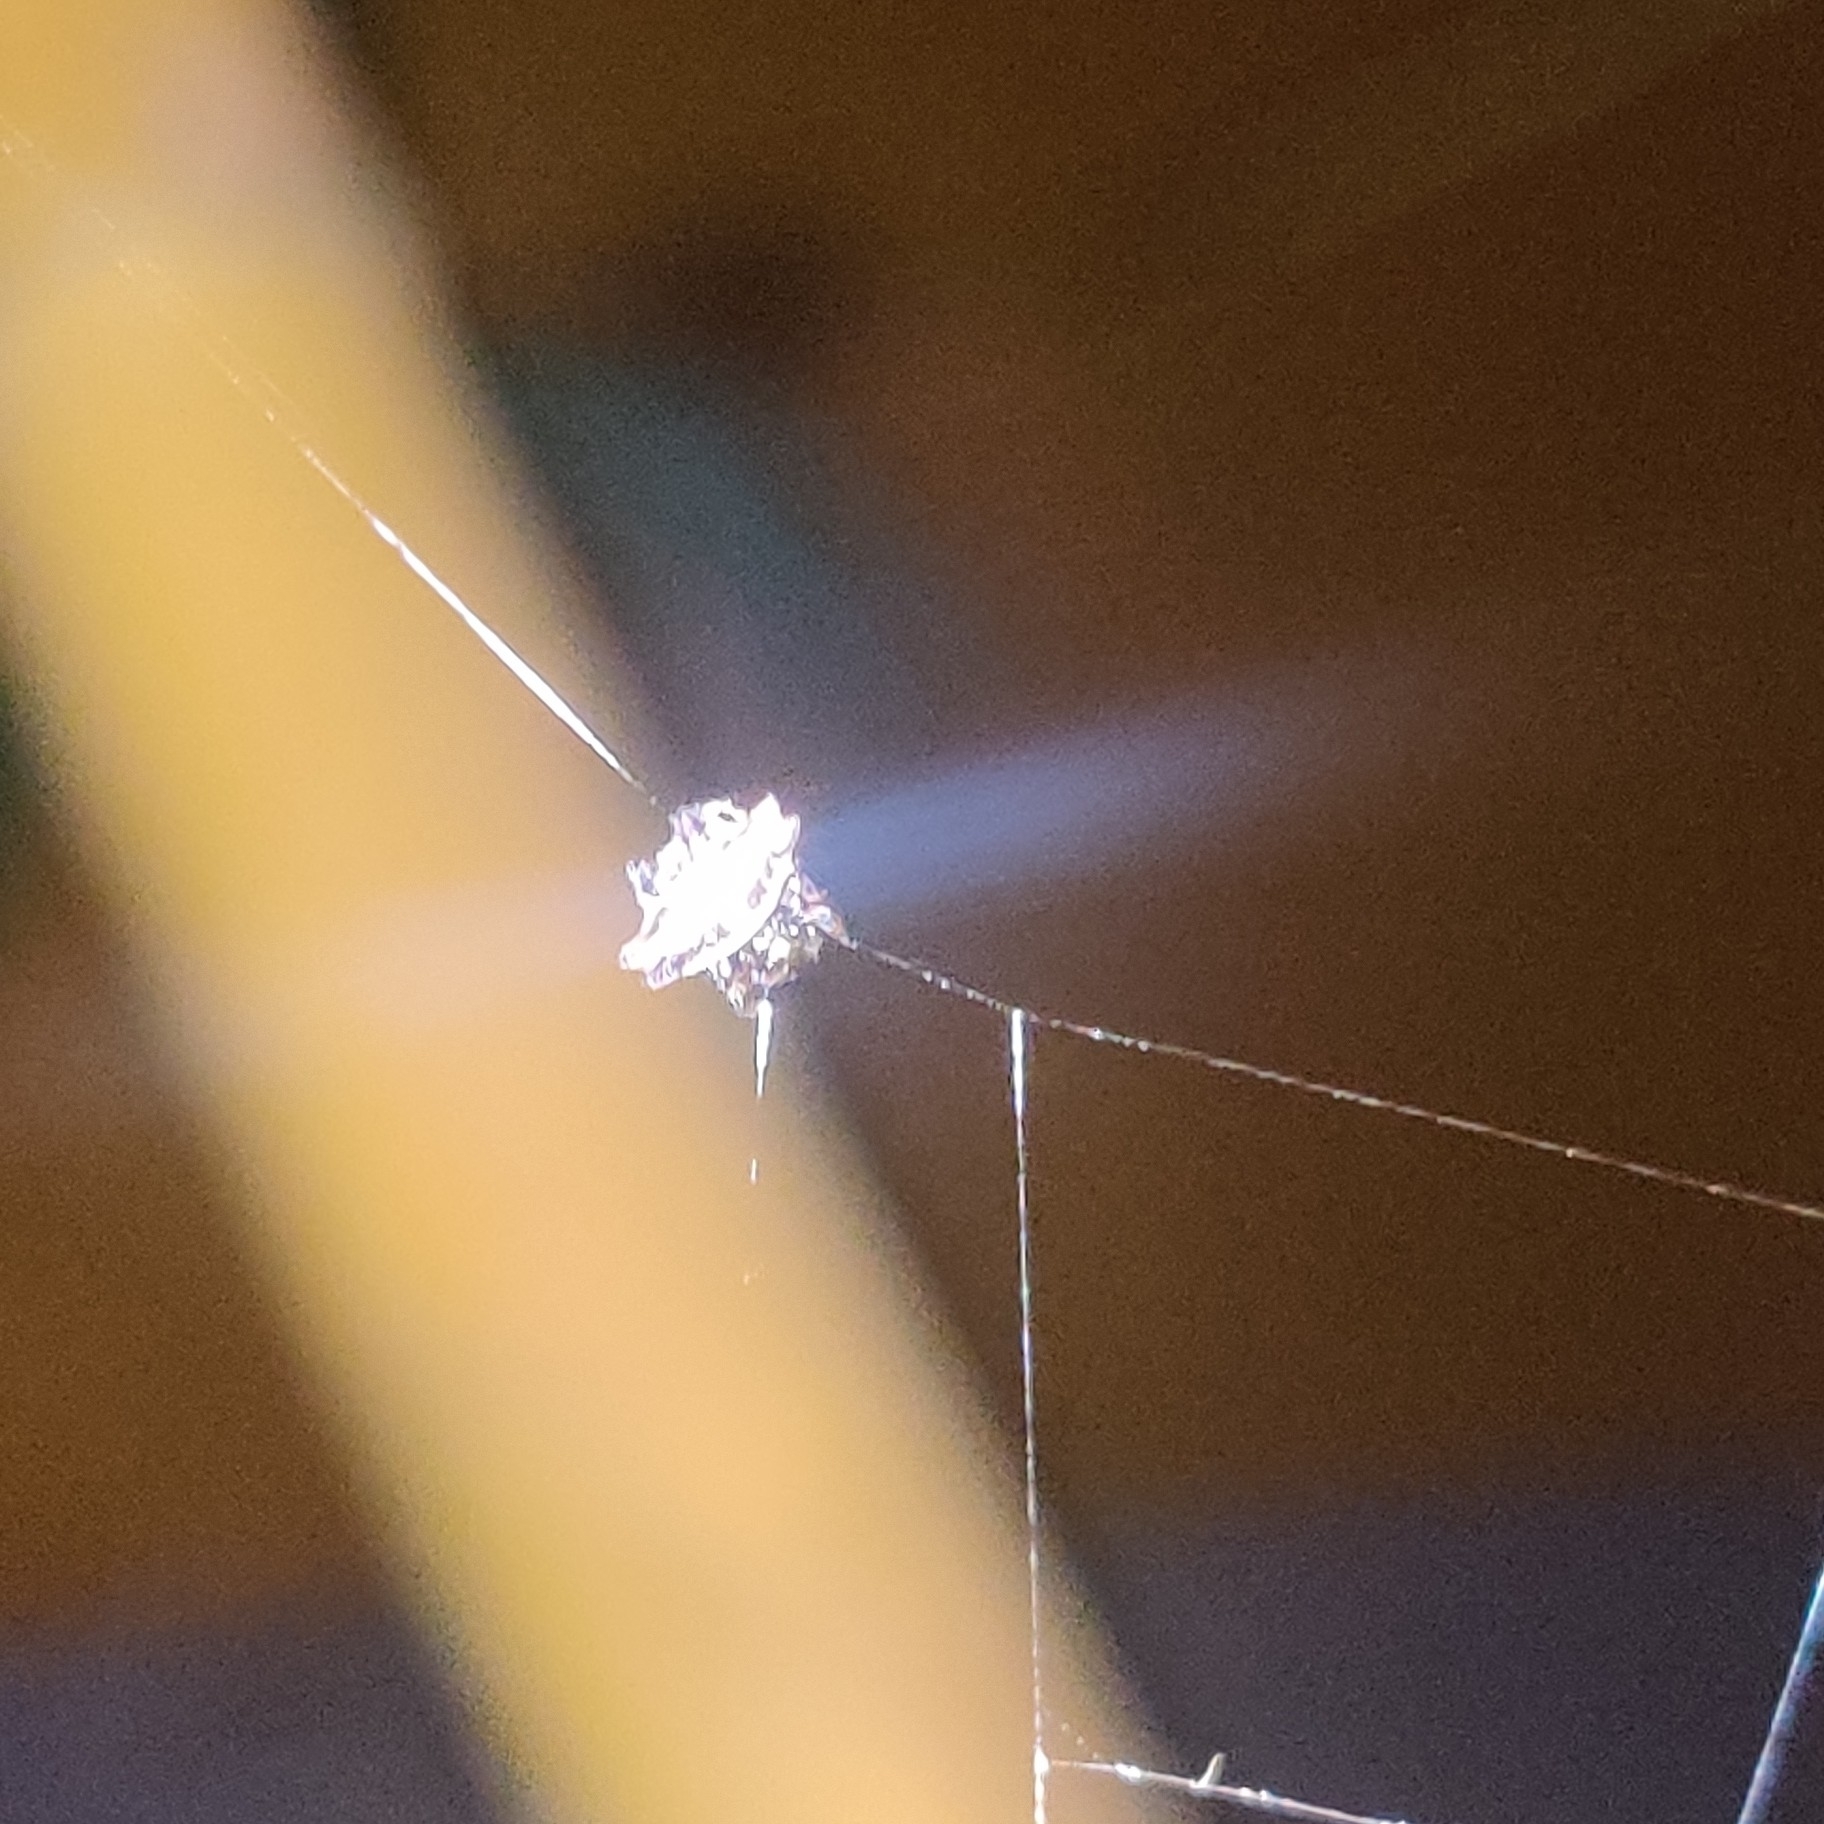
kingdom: Animalia
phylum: Arthropoda
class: Arachnida
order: Araneae
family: Araneidae
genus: Gasteracantha
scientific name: Gasteracantha geminata
